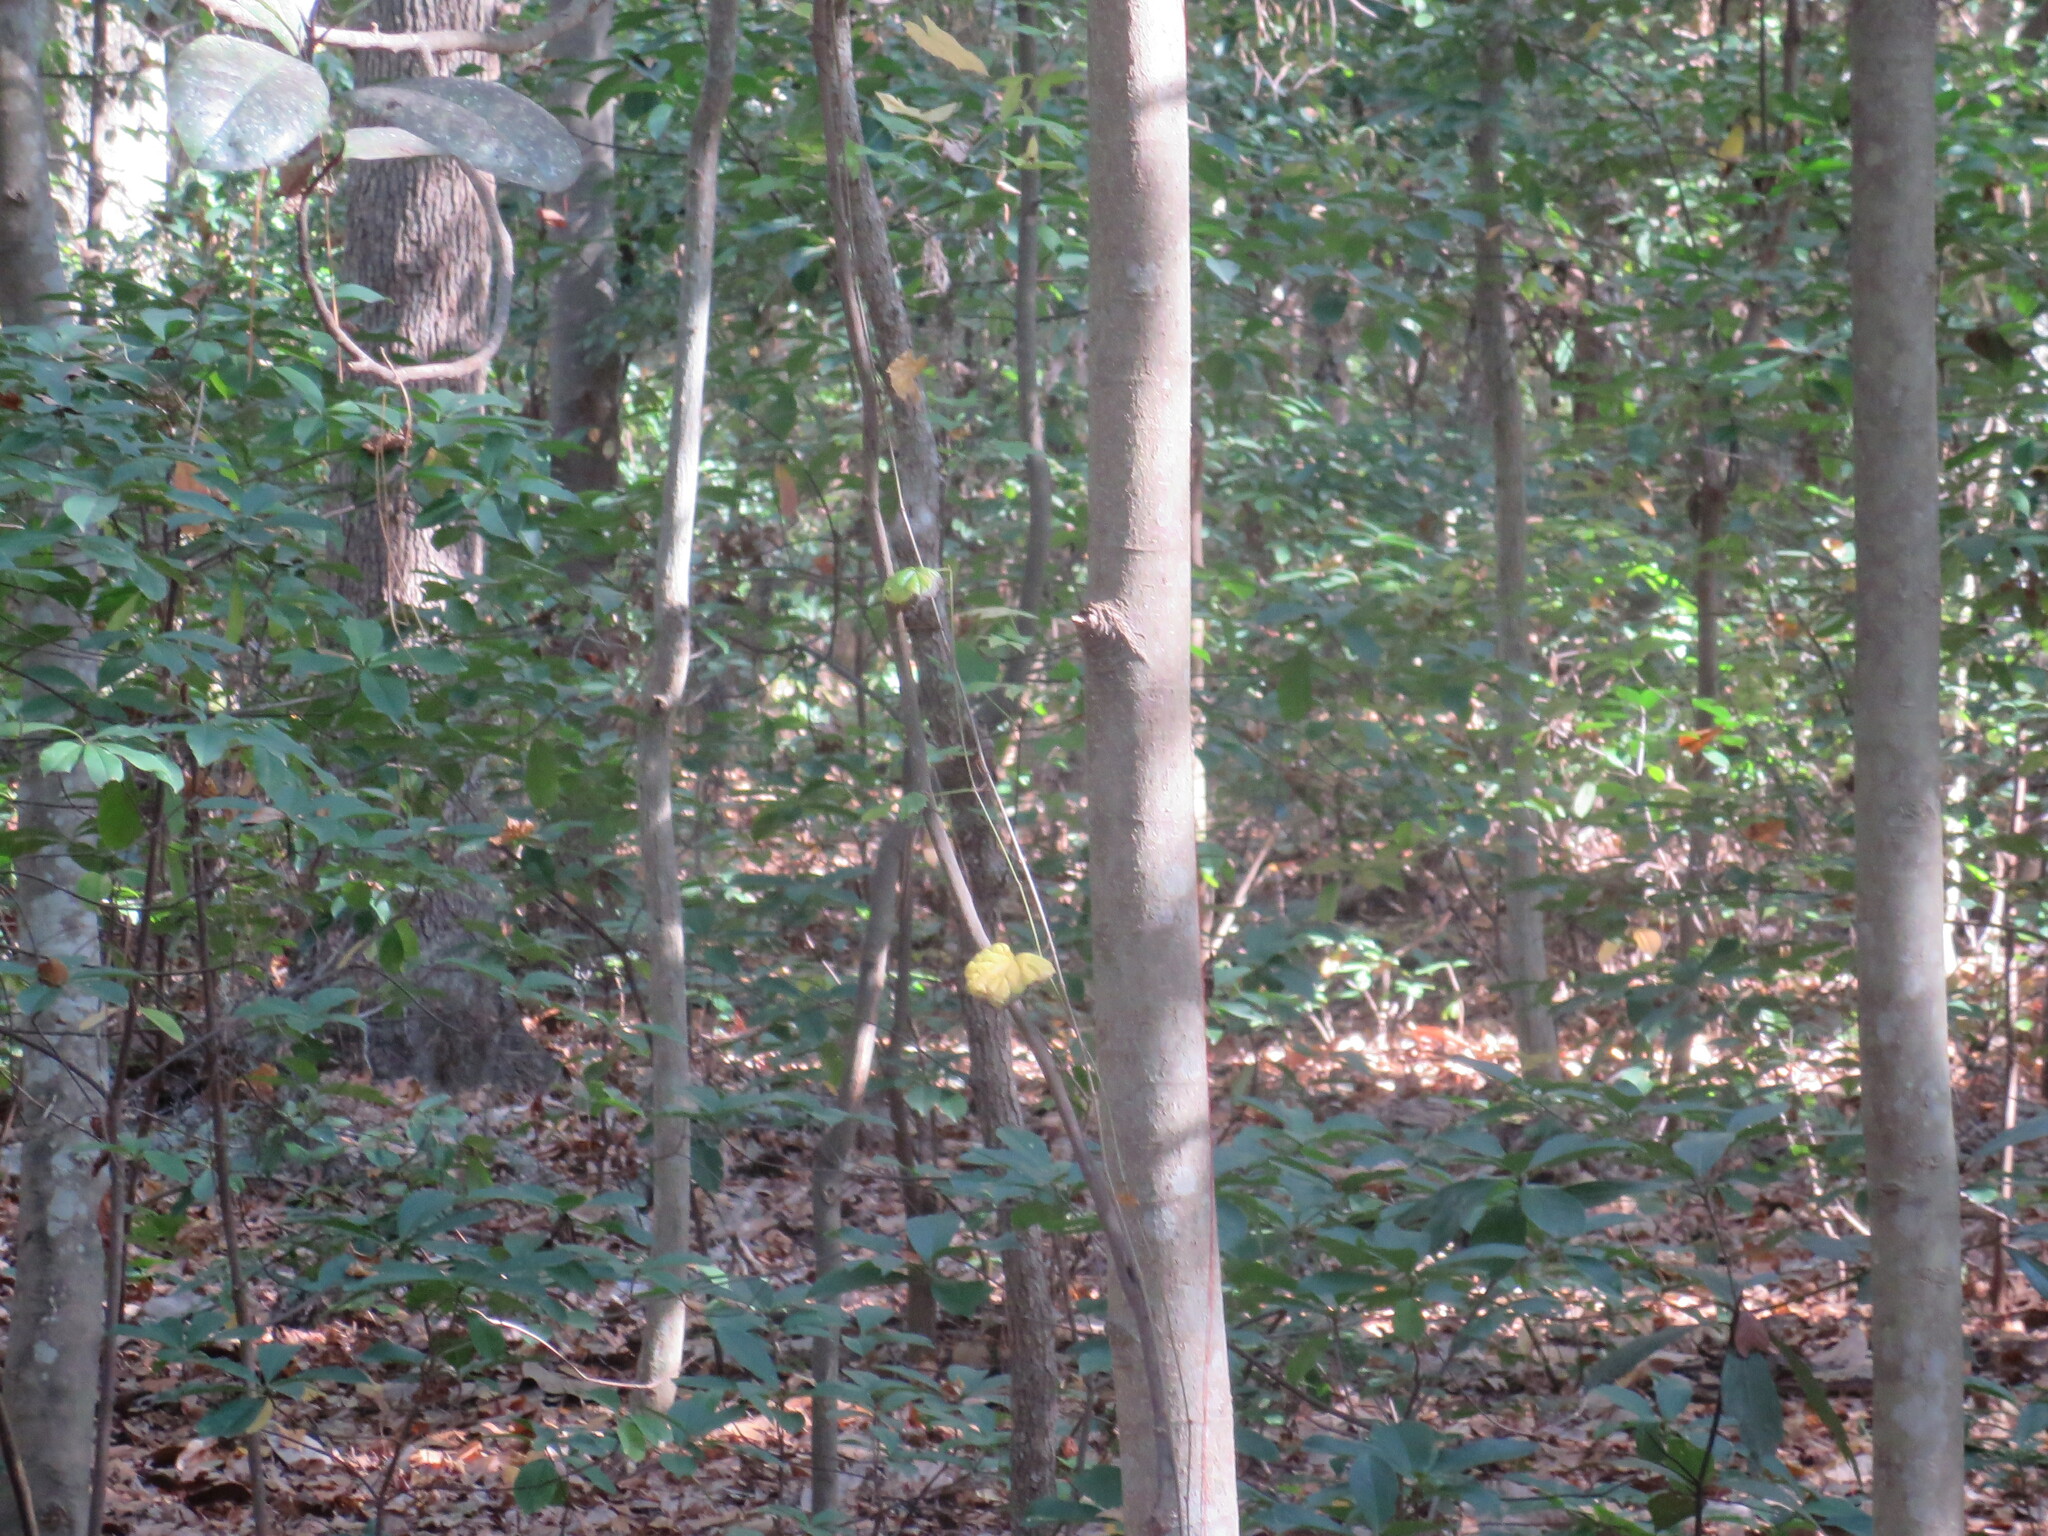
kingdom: Plantae
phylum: Tracheophyta
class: Magnoliopsida
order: Vitales
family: Vitaceae
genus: Vitis
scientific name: Vitis rotundifolia
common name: Muscadine grape
